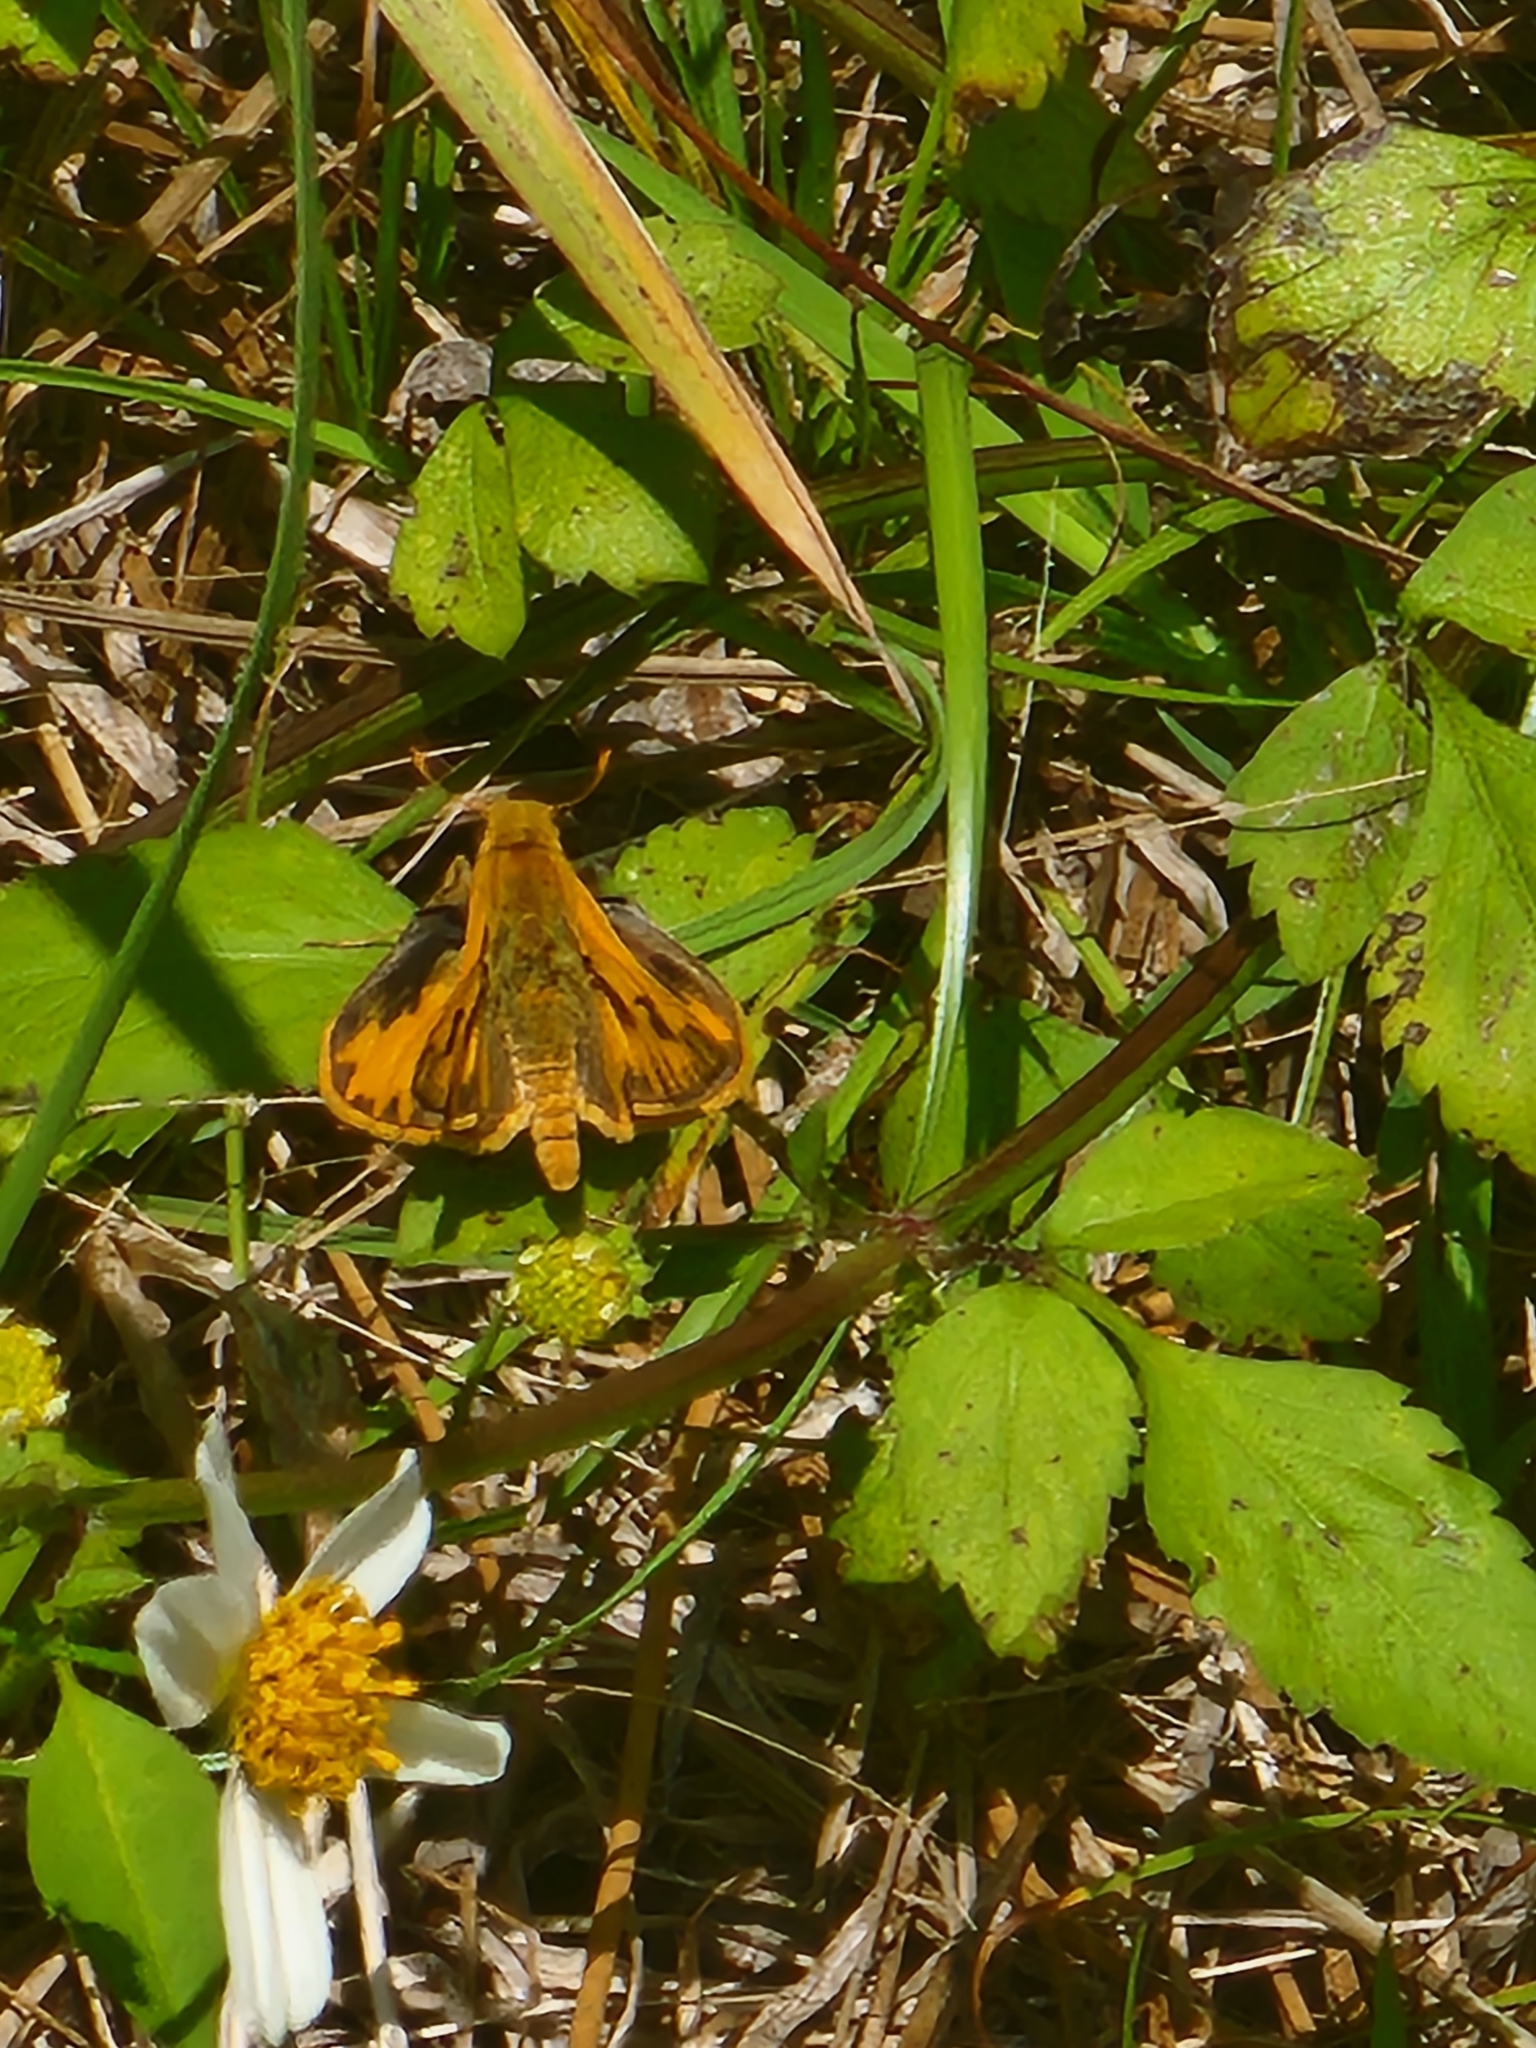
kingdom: Animalia
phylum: Arthropoda
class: Insecta
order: Lepidoptera
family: Hesperiidae
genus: Hylephila
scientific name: Hylephila phyleus
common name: Fiery skipper
